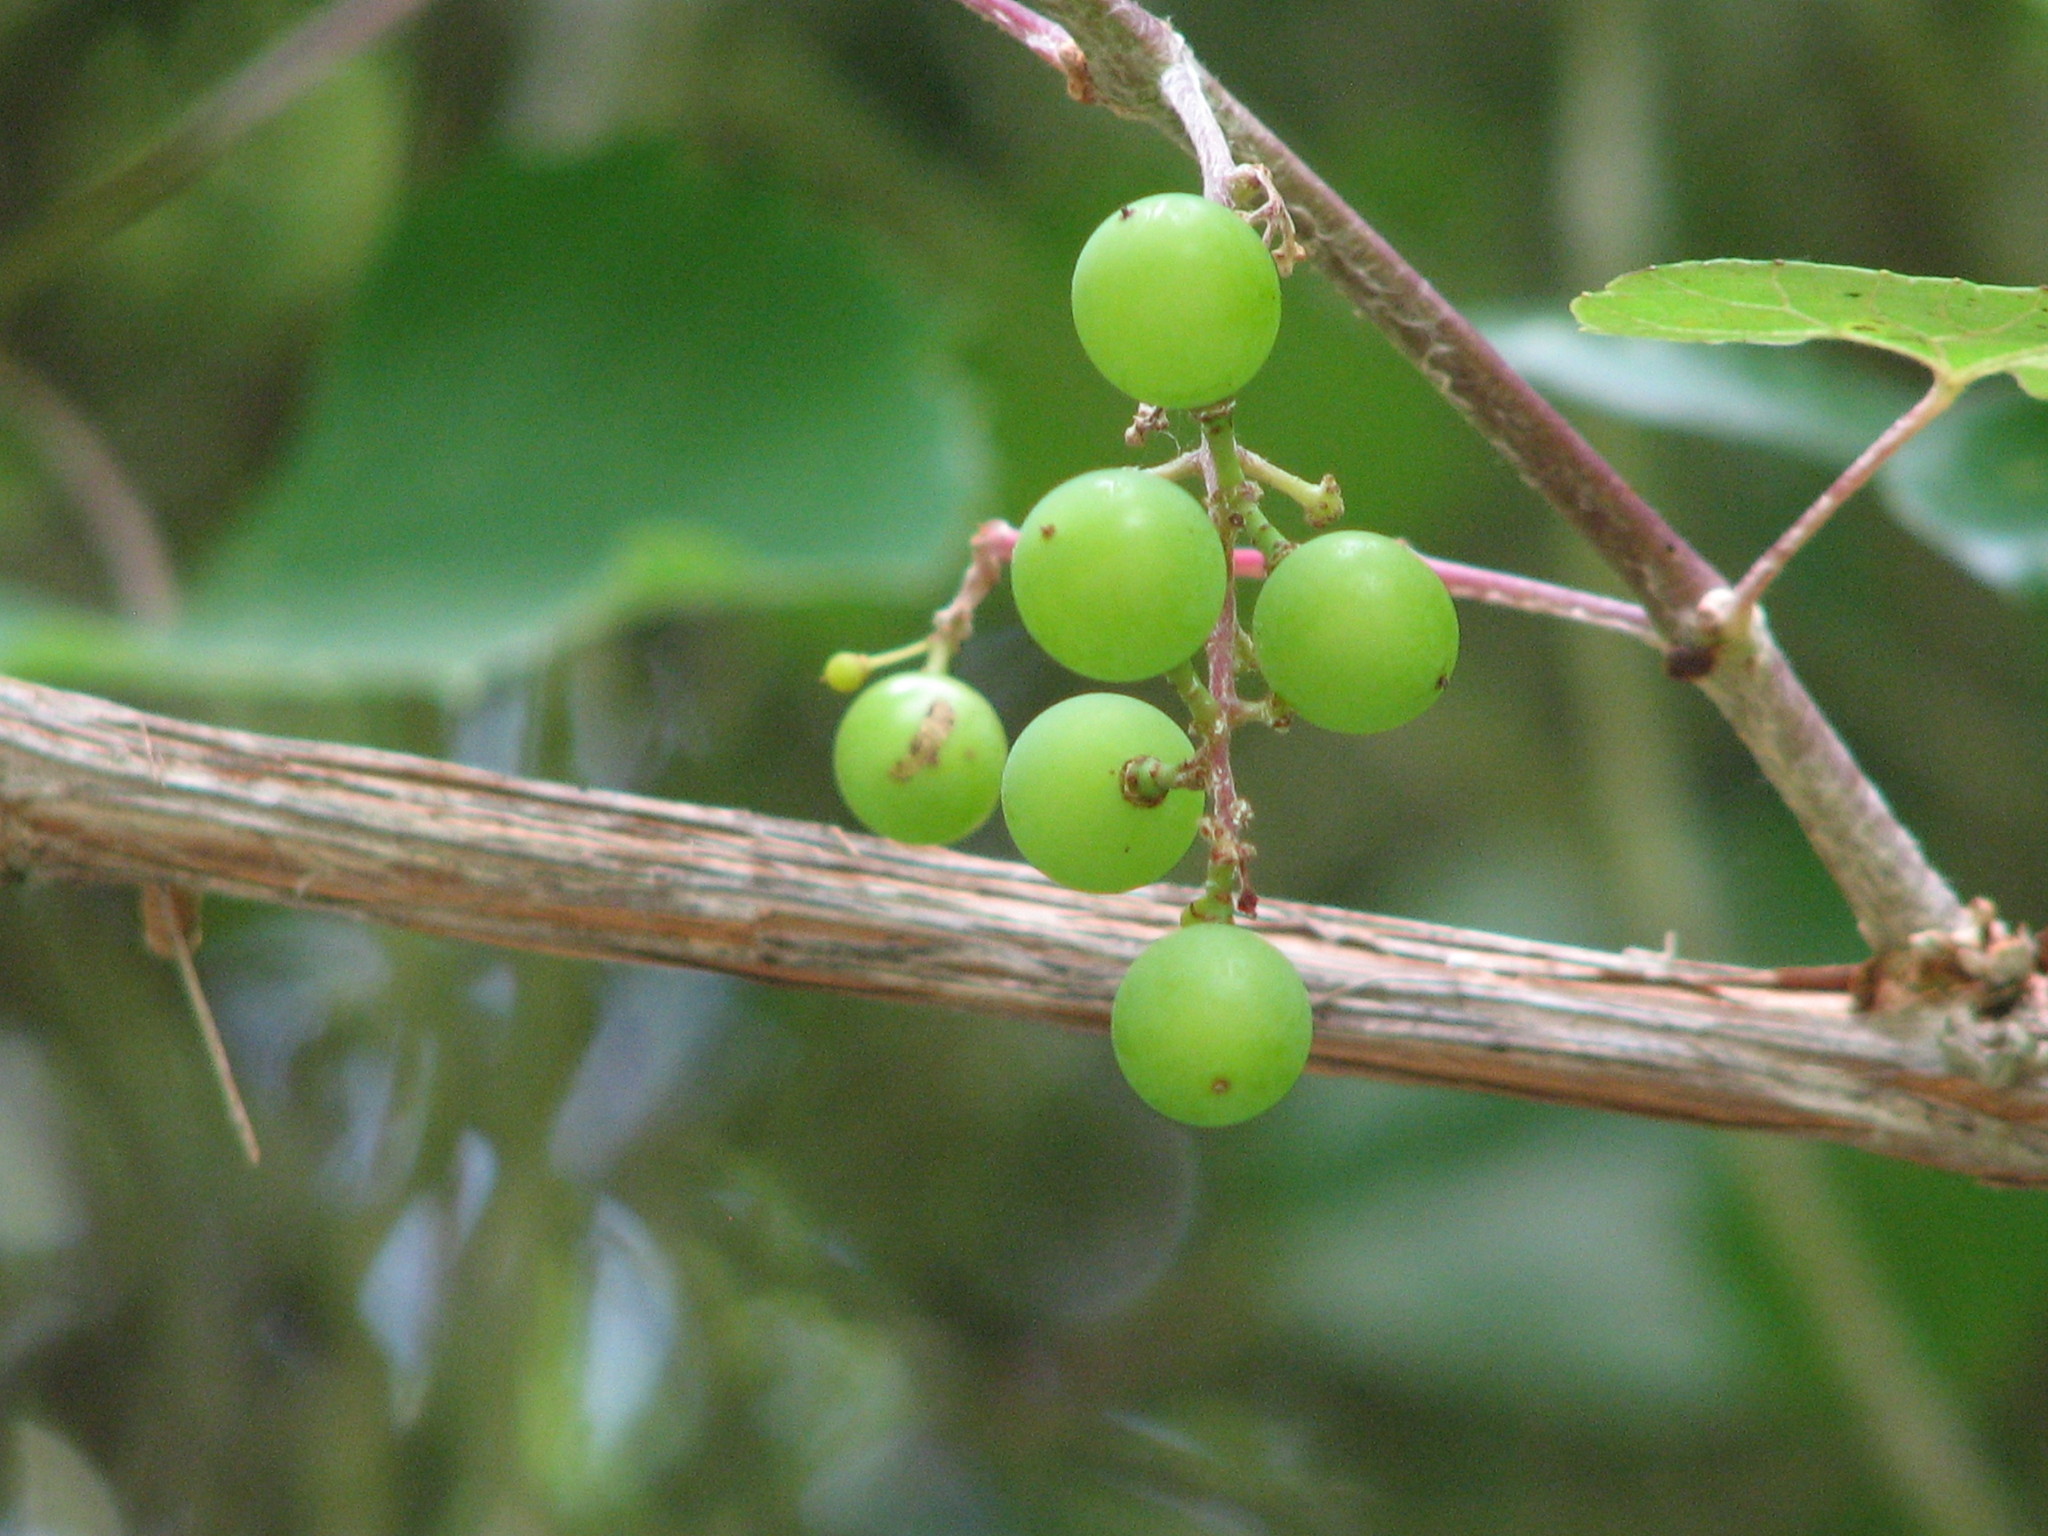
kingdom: Plantae
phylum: Tracheophyta
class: Magnoliopsida
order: Vitales
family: Vitaceae
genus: Vitis
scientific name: Vitis mustangensis
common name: Mustang grape
